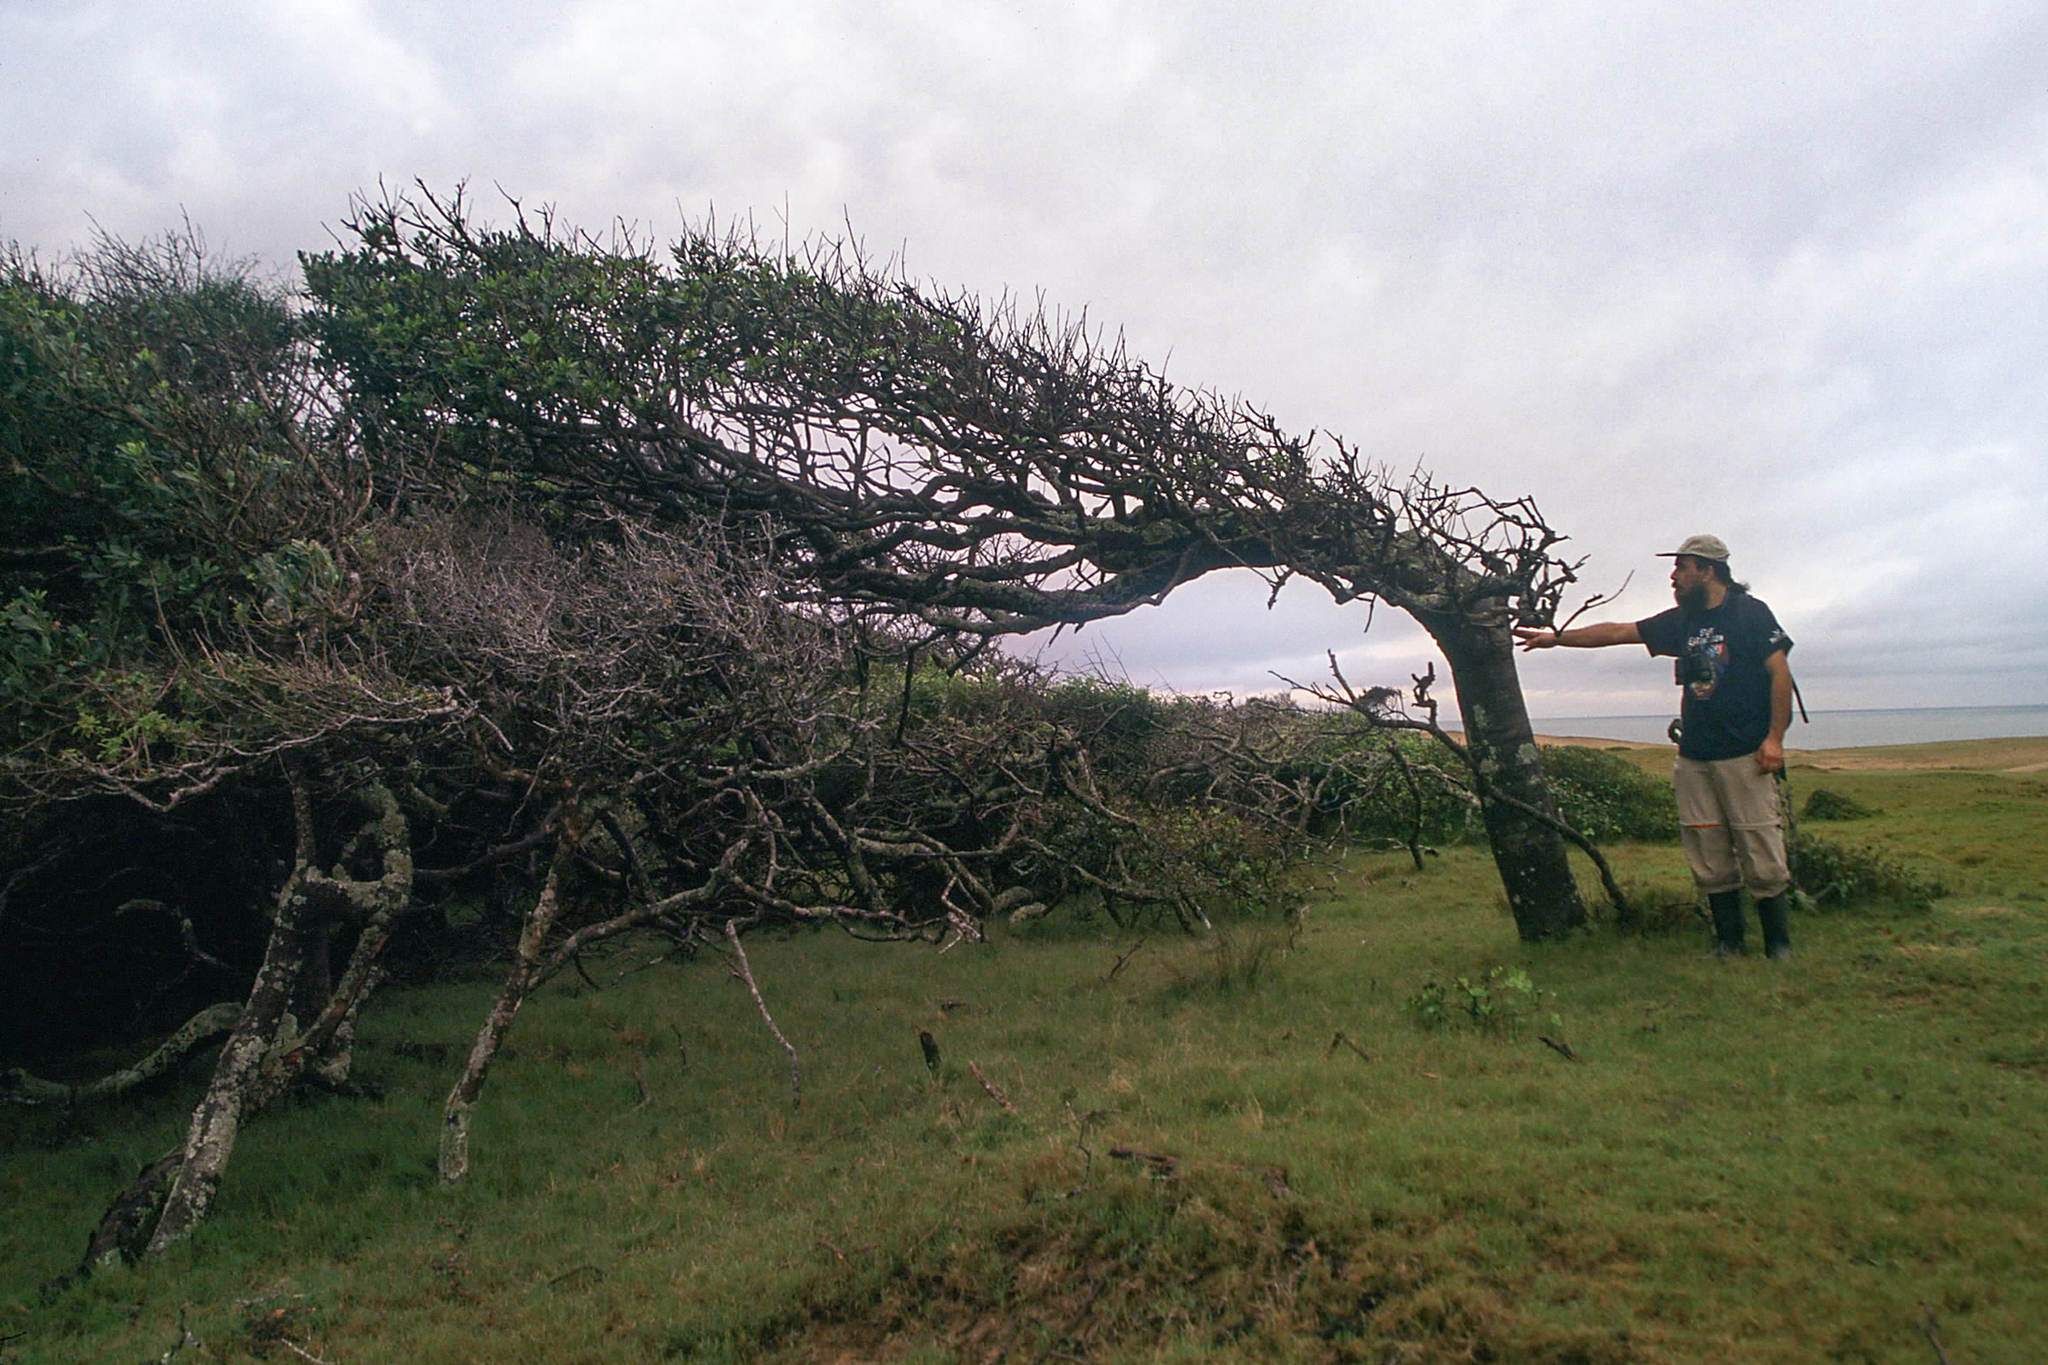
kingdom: Plantae
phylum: Tracheophyta
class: Magnoliopsida
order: Ericales
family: Primulaceae
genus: Myrsine
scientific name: Myrsine laetevirens
